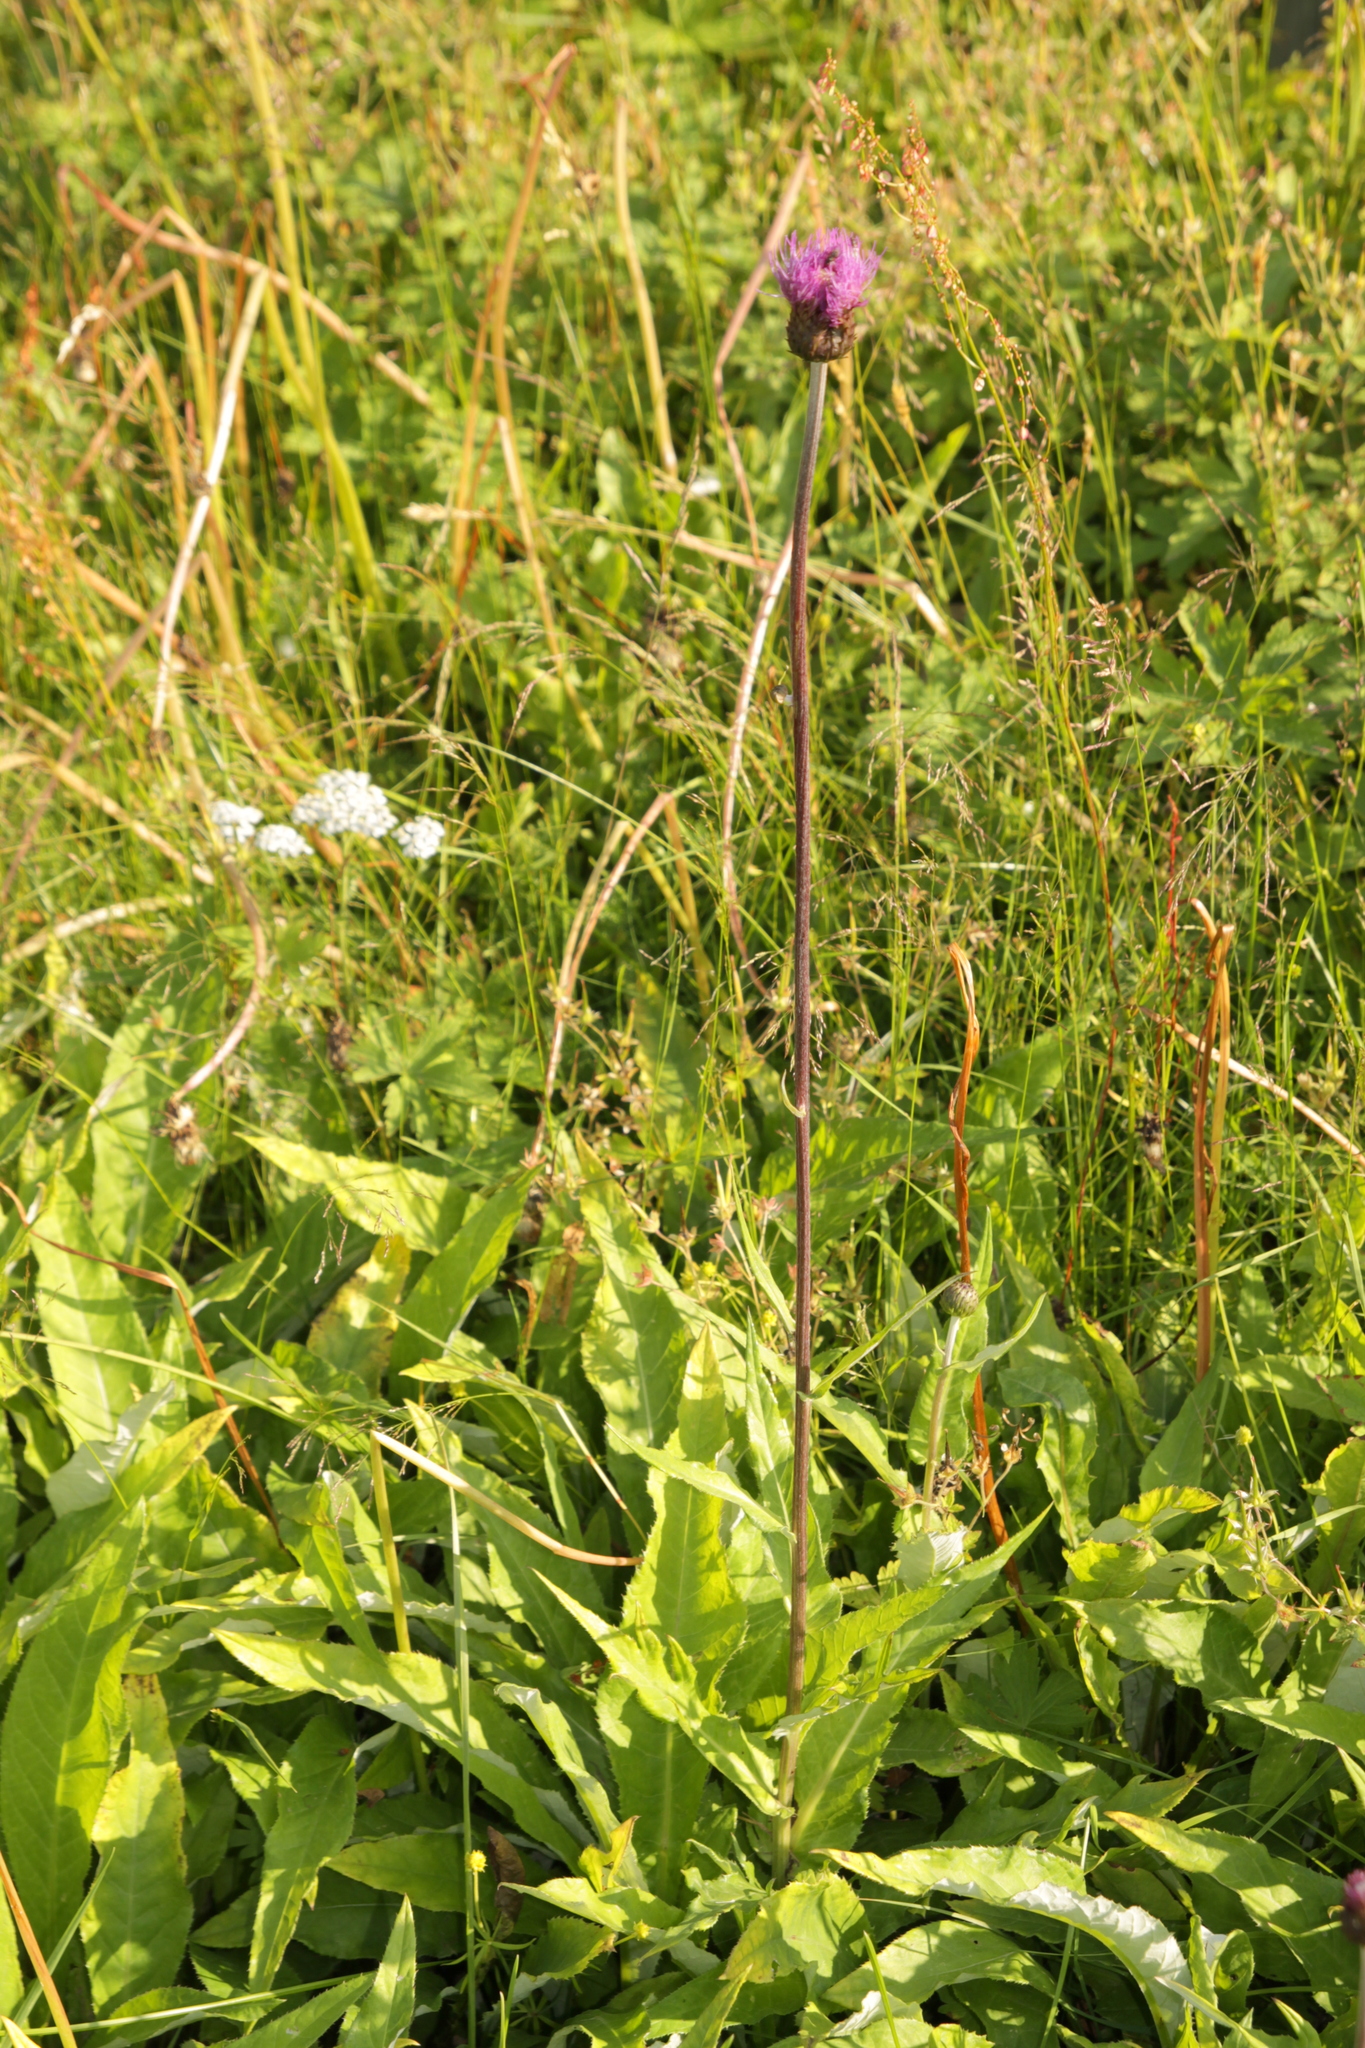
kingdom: Plantae
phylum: Tracheophyta
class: Magnoliopsida
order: Asterales
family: Asteraceae
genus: Cirsium
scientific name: Cirsium heterophyllum
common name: Melancholy thistle
